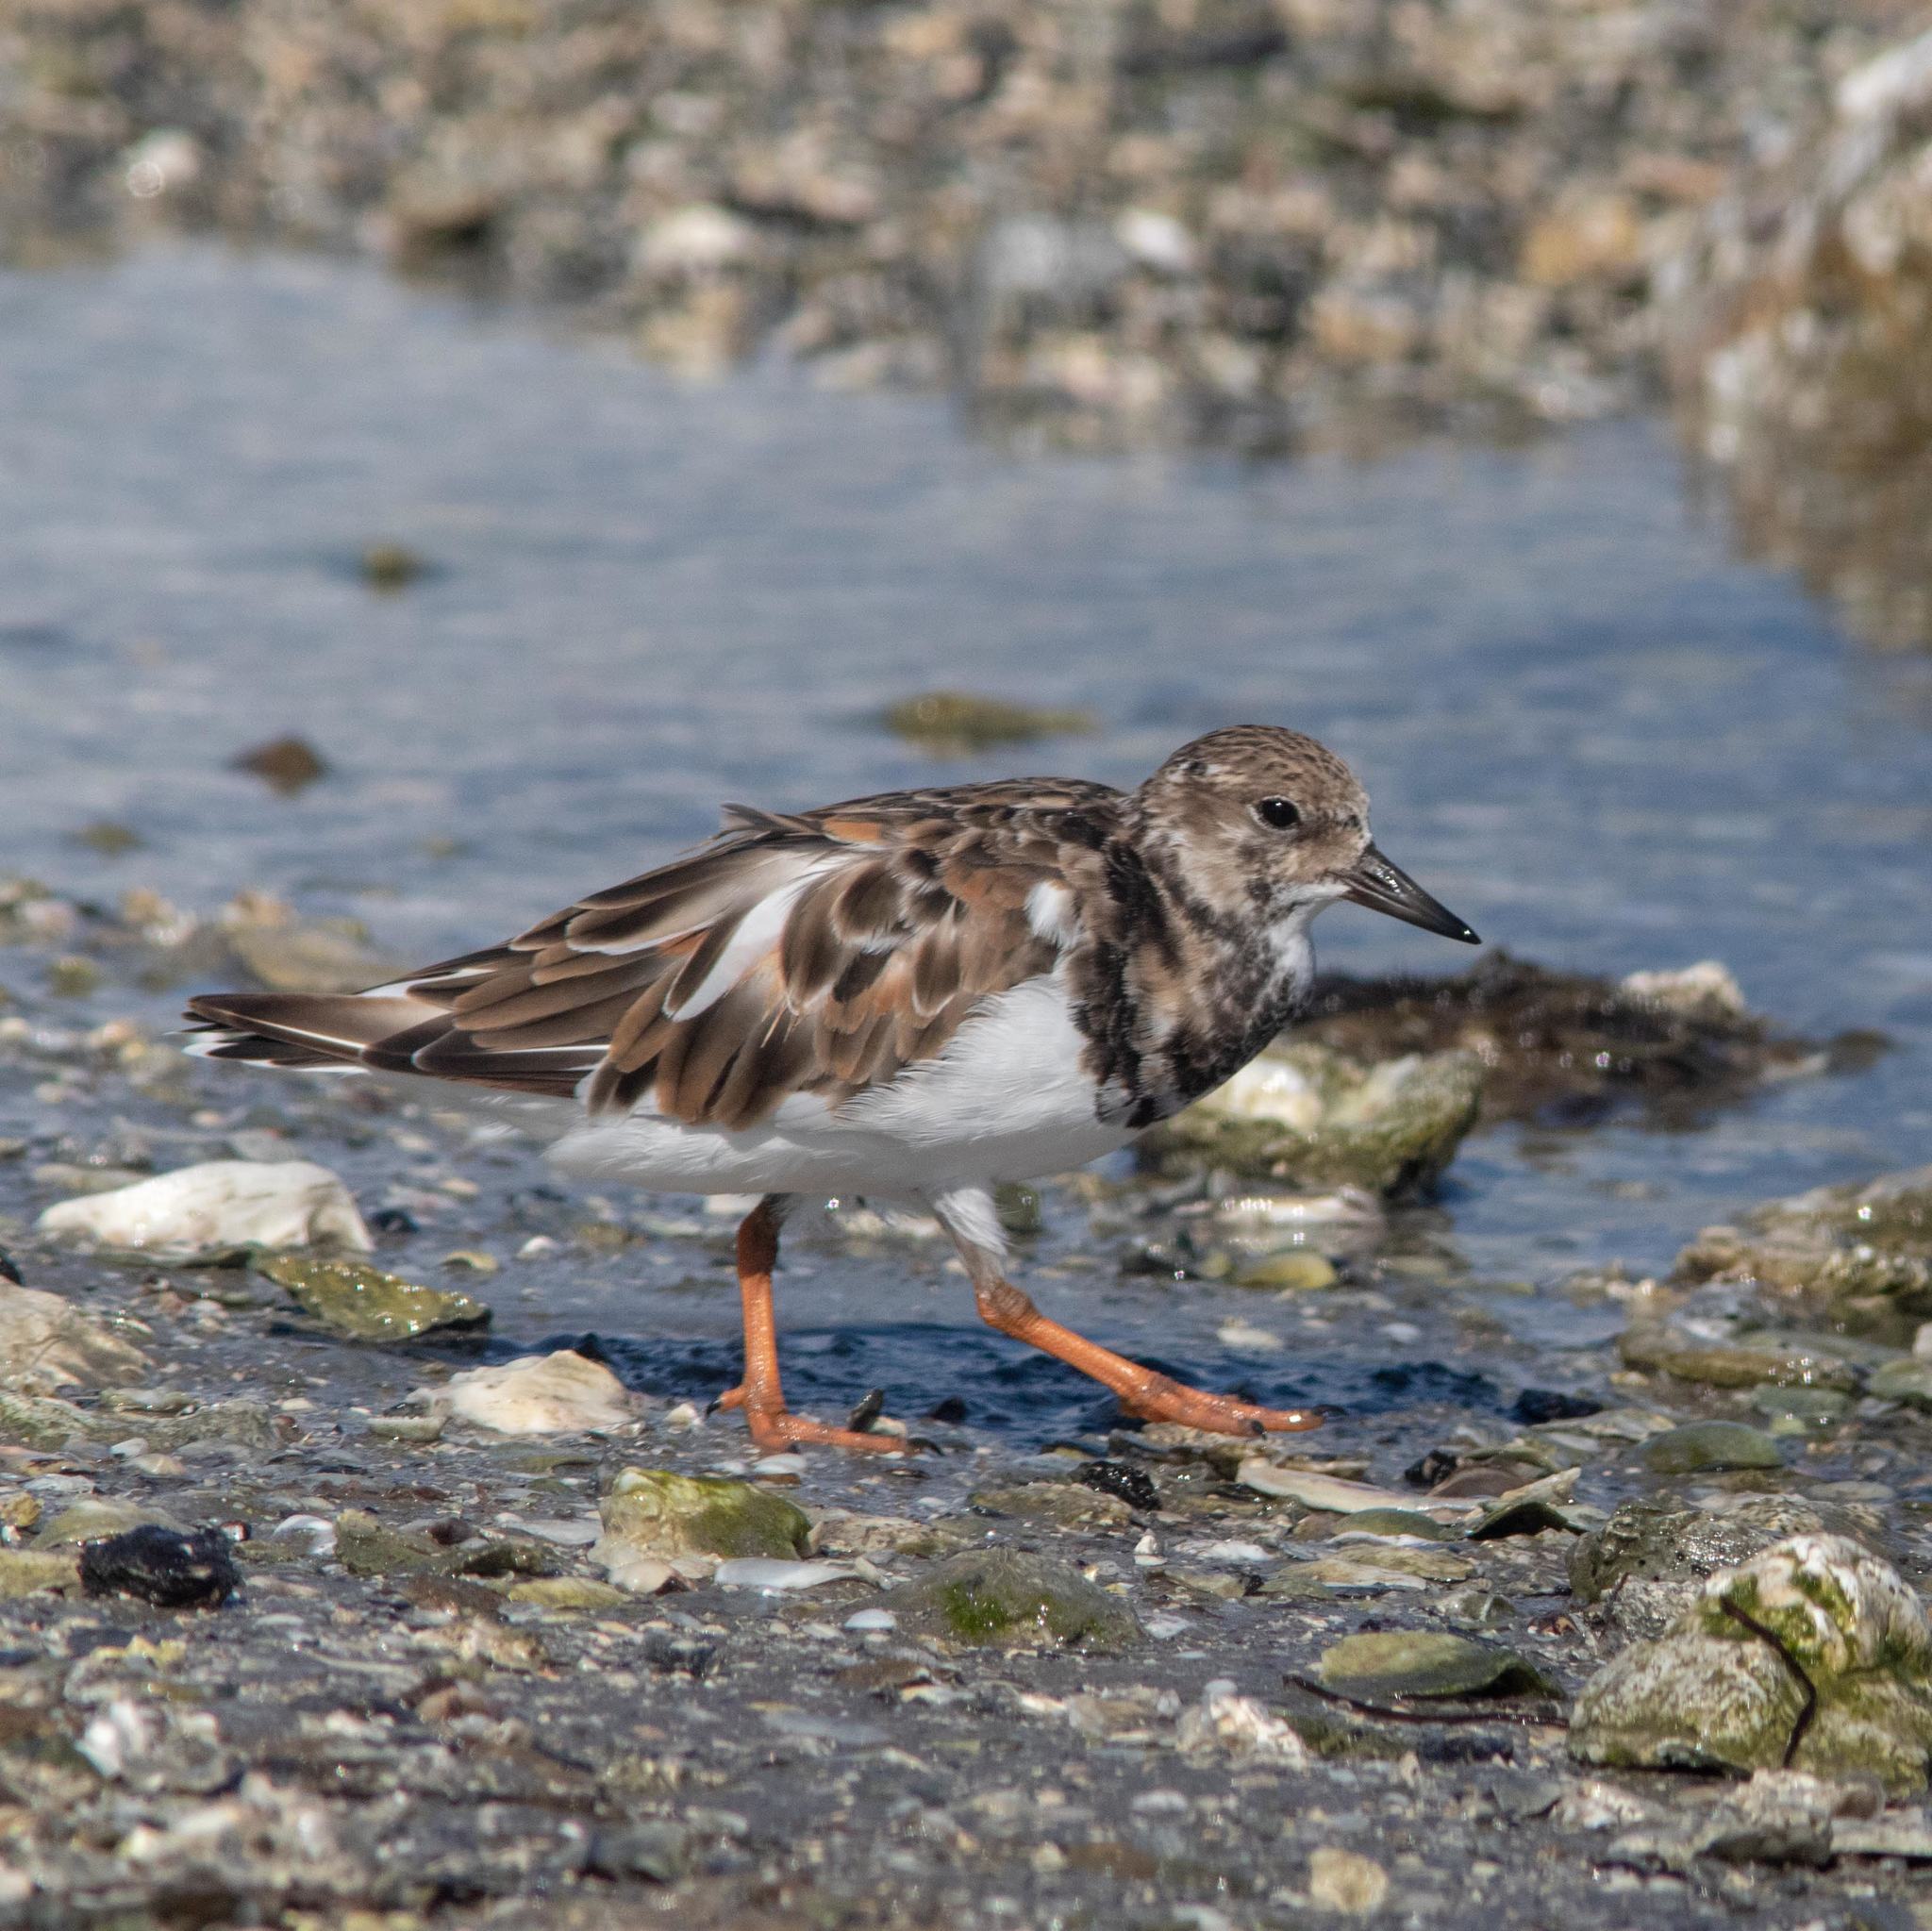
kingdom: Animalia
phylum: Chordata
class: Aves
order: Charadriiformes
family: Scolopacidae
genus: Arenaria
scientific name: Arenaria interpres
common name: Ruddy turnstone
